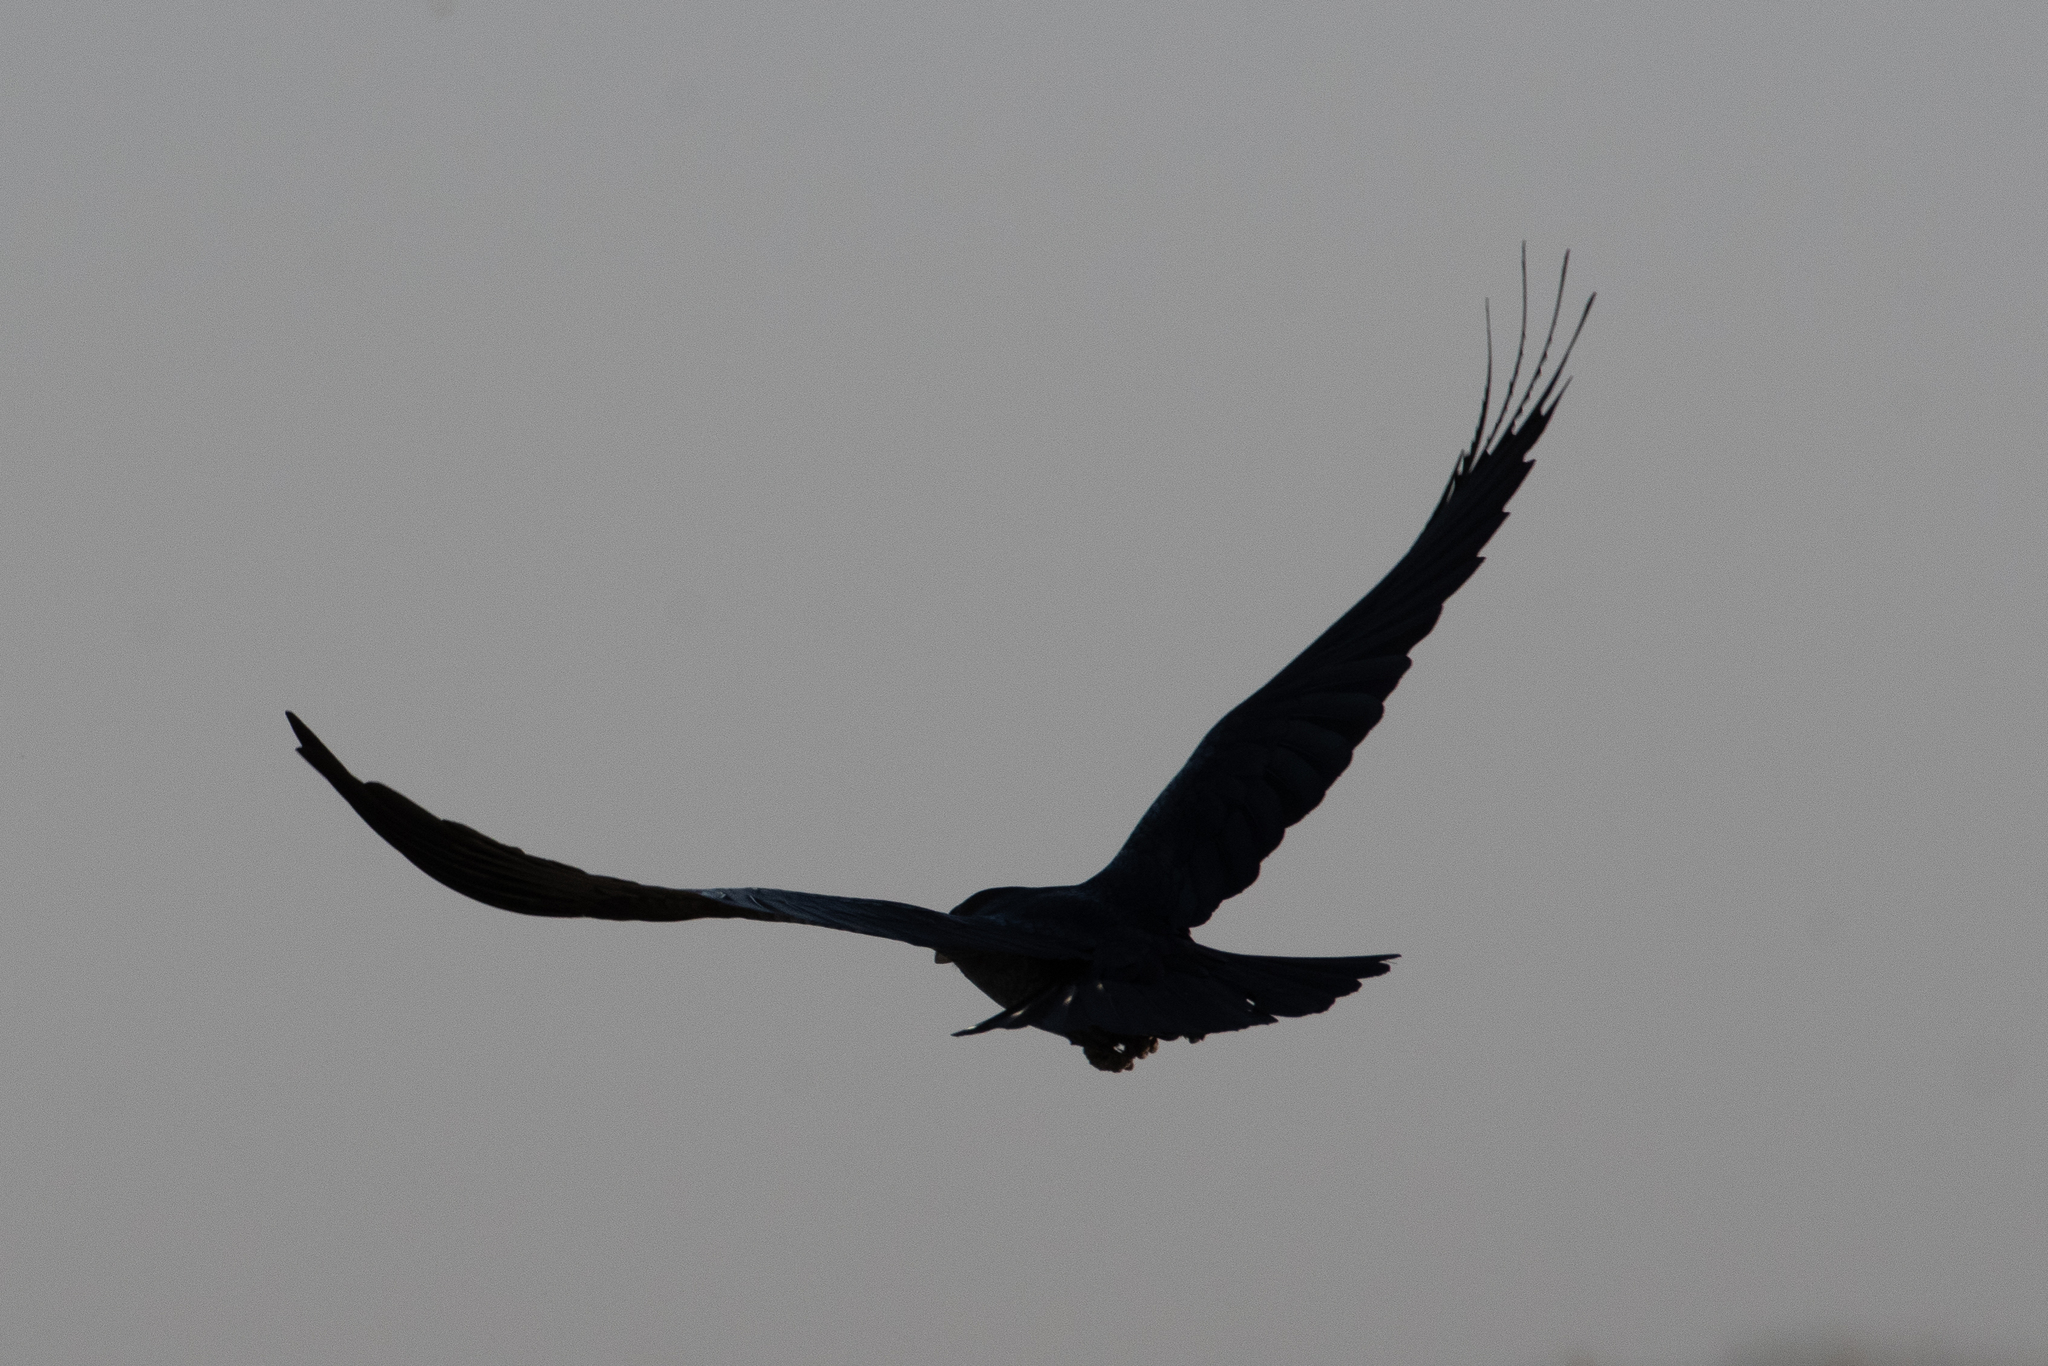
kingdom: Animalia
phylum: Chordata
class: Aves
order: Accipitriformes
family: Cathartidae
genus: Cathartes
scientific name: Cathartes aura
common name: Turkey vulture
